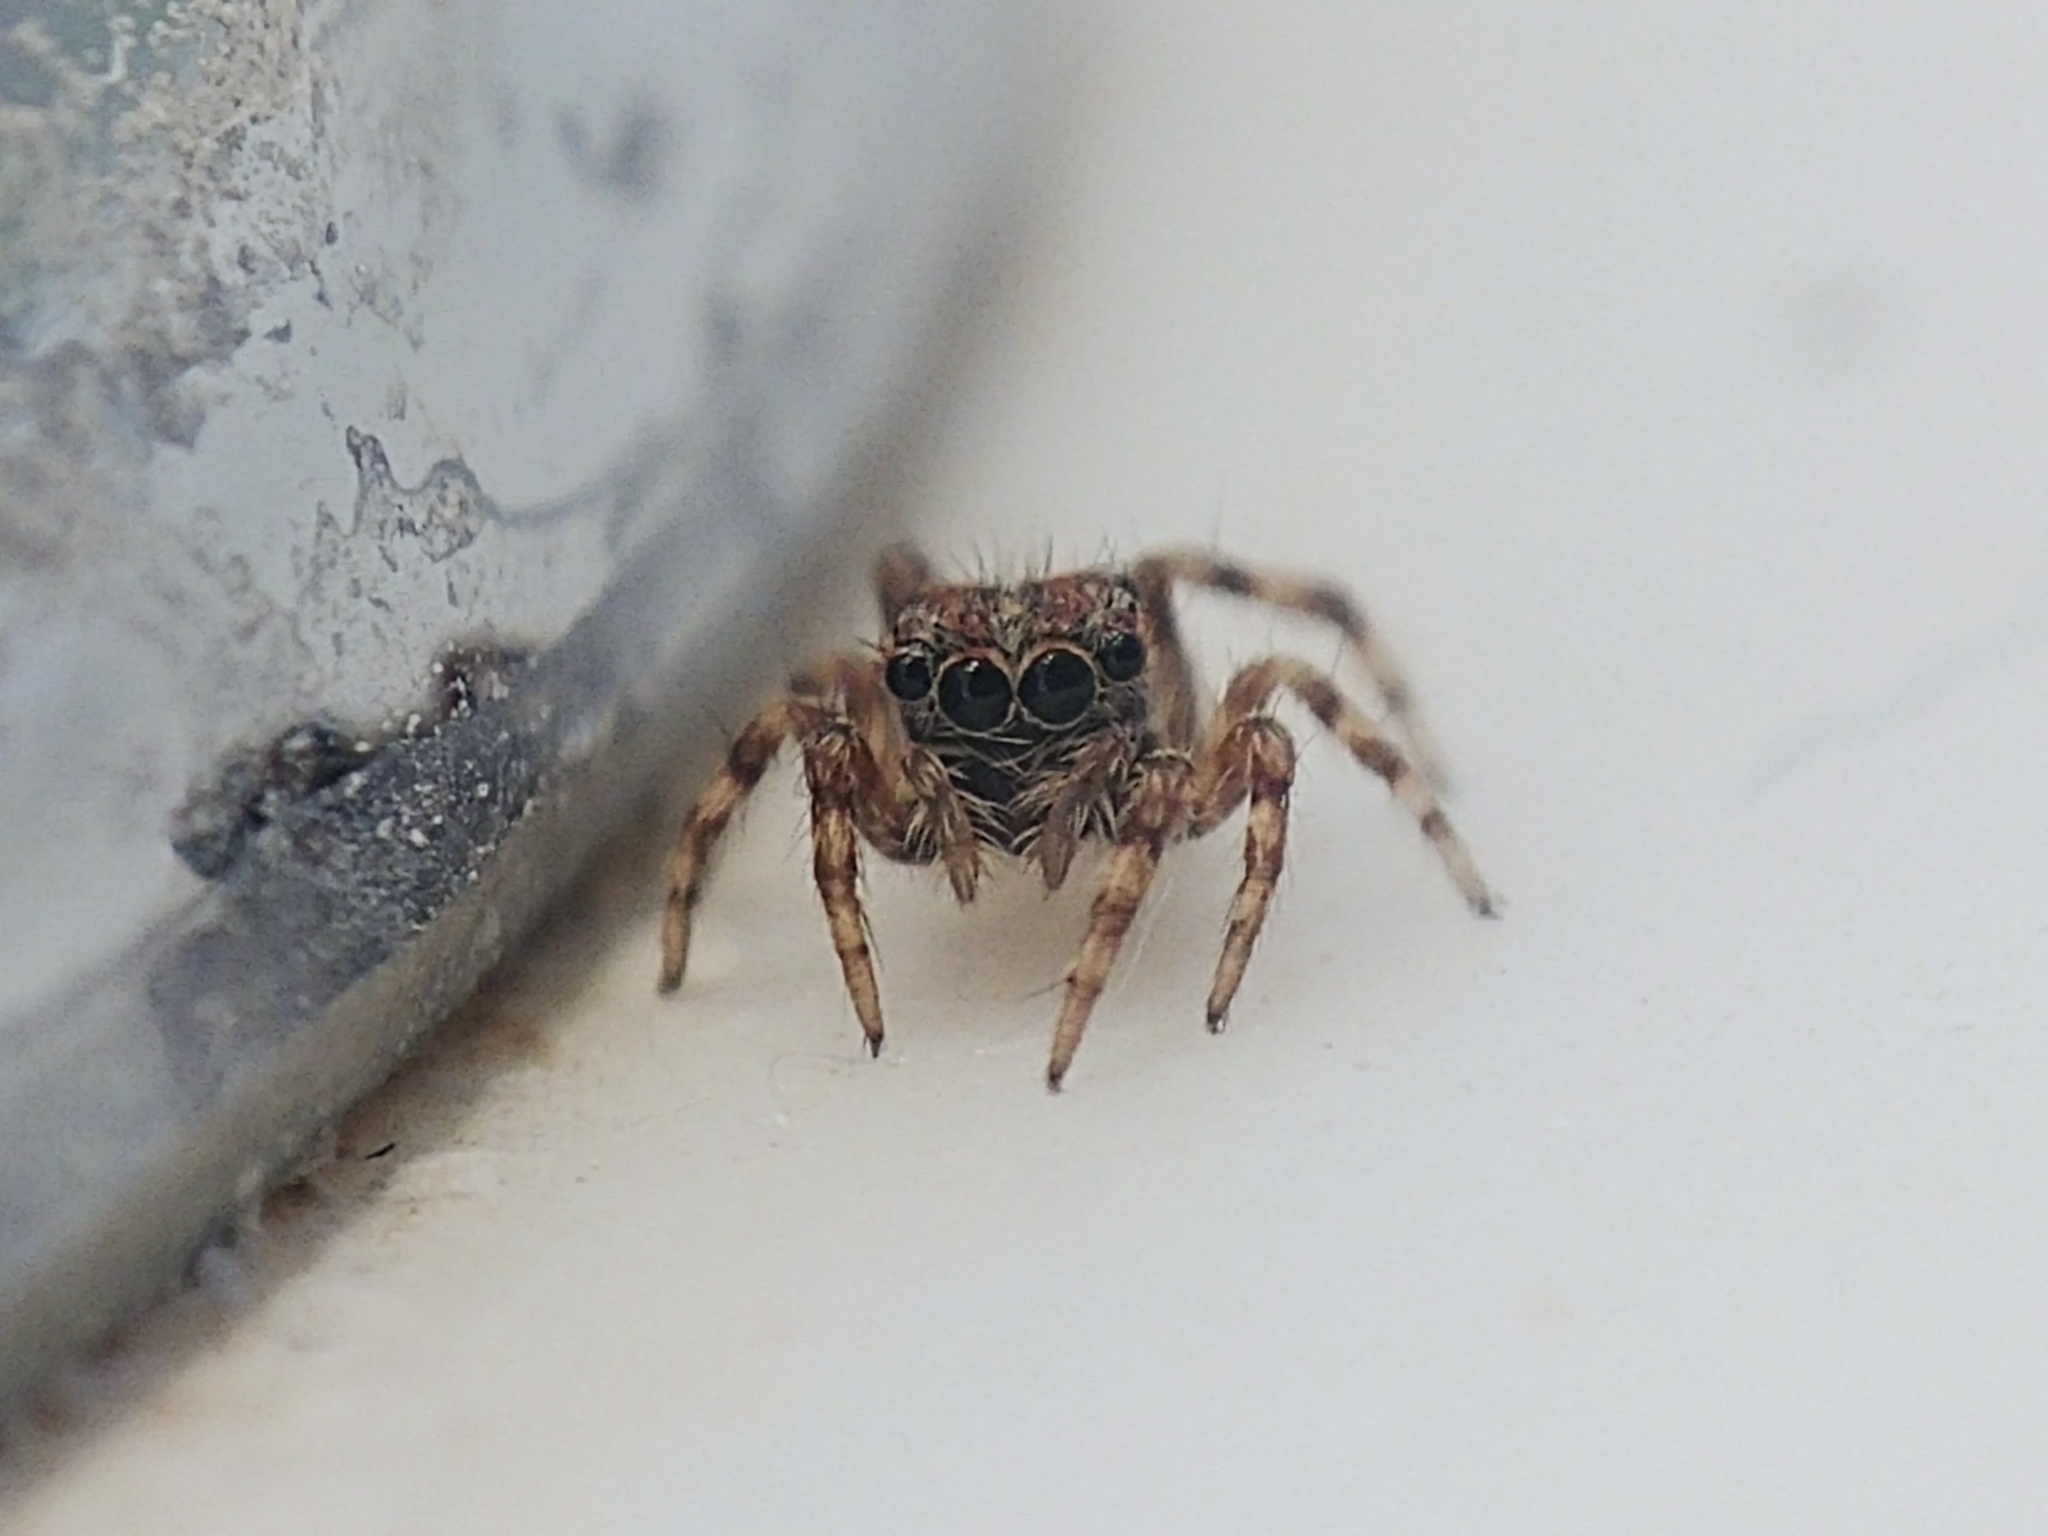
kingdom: Animalia
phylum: Arthropoda
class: Arachnida
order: Araneae
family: Salticidae
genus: Attulus
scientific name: Attulus fasciger
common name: Asiatic wall jumping spider
